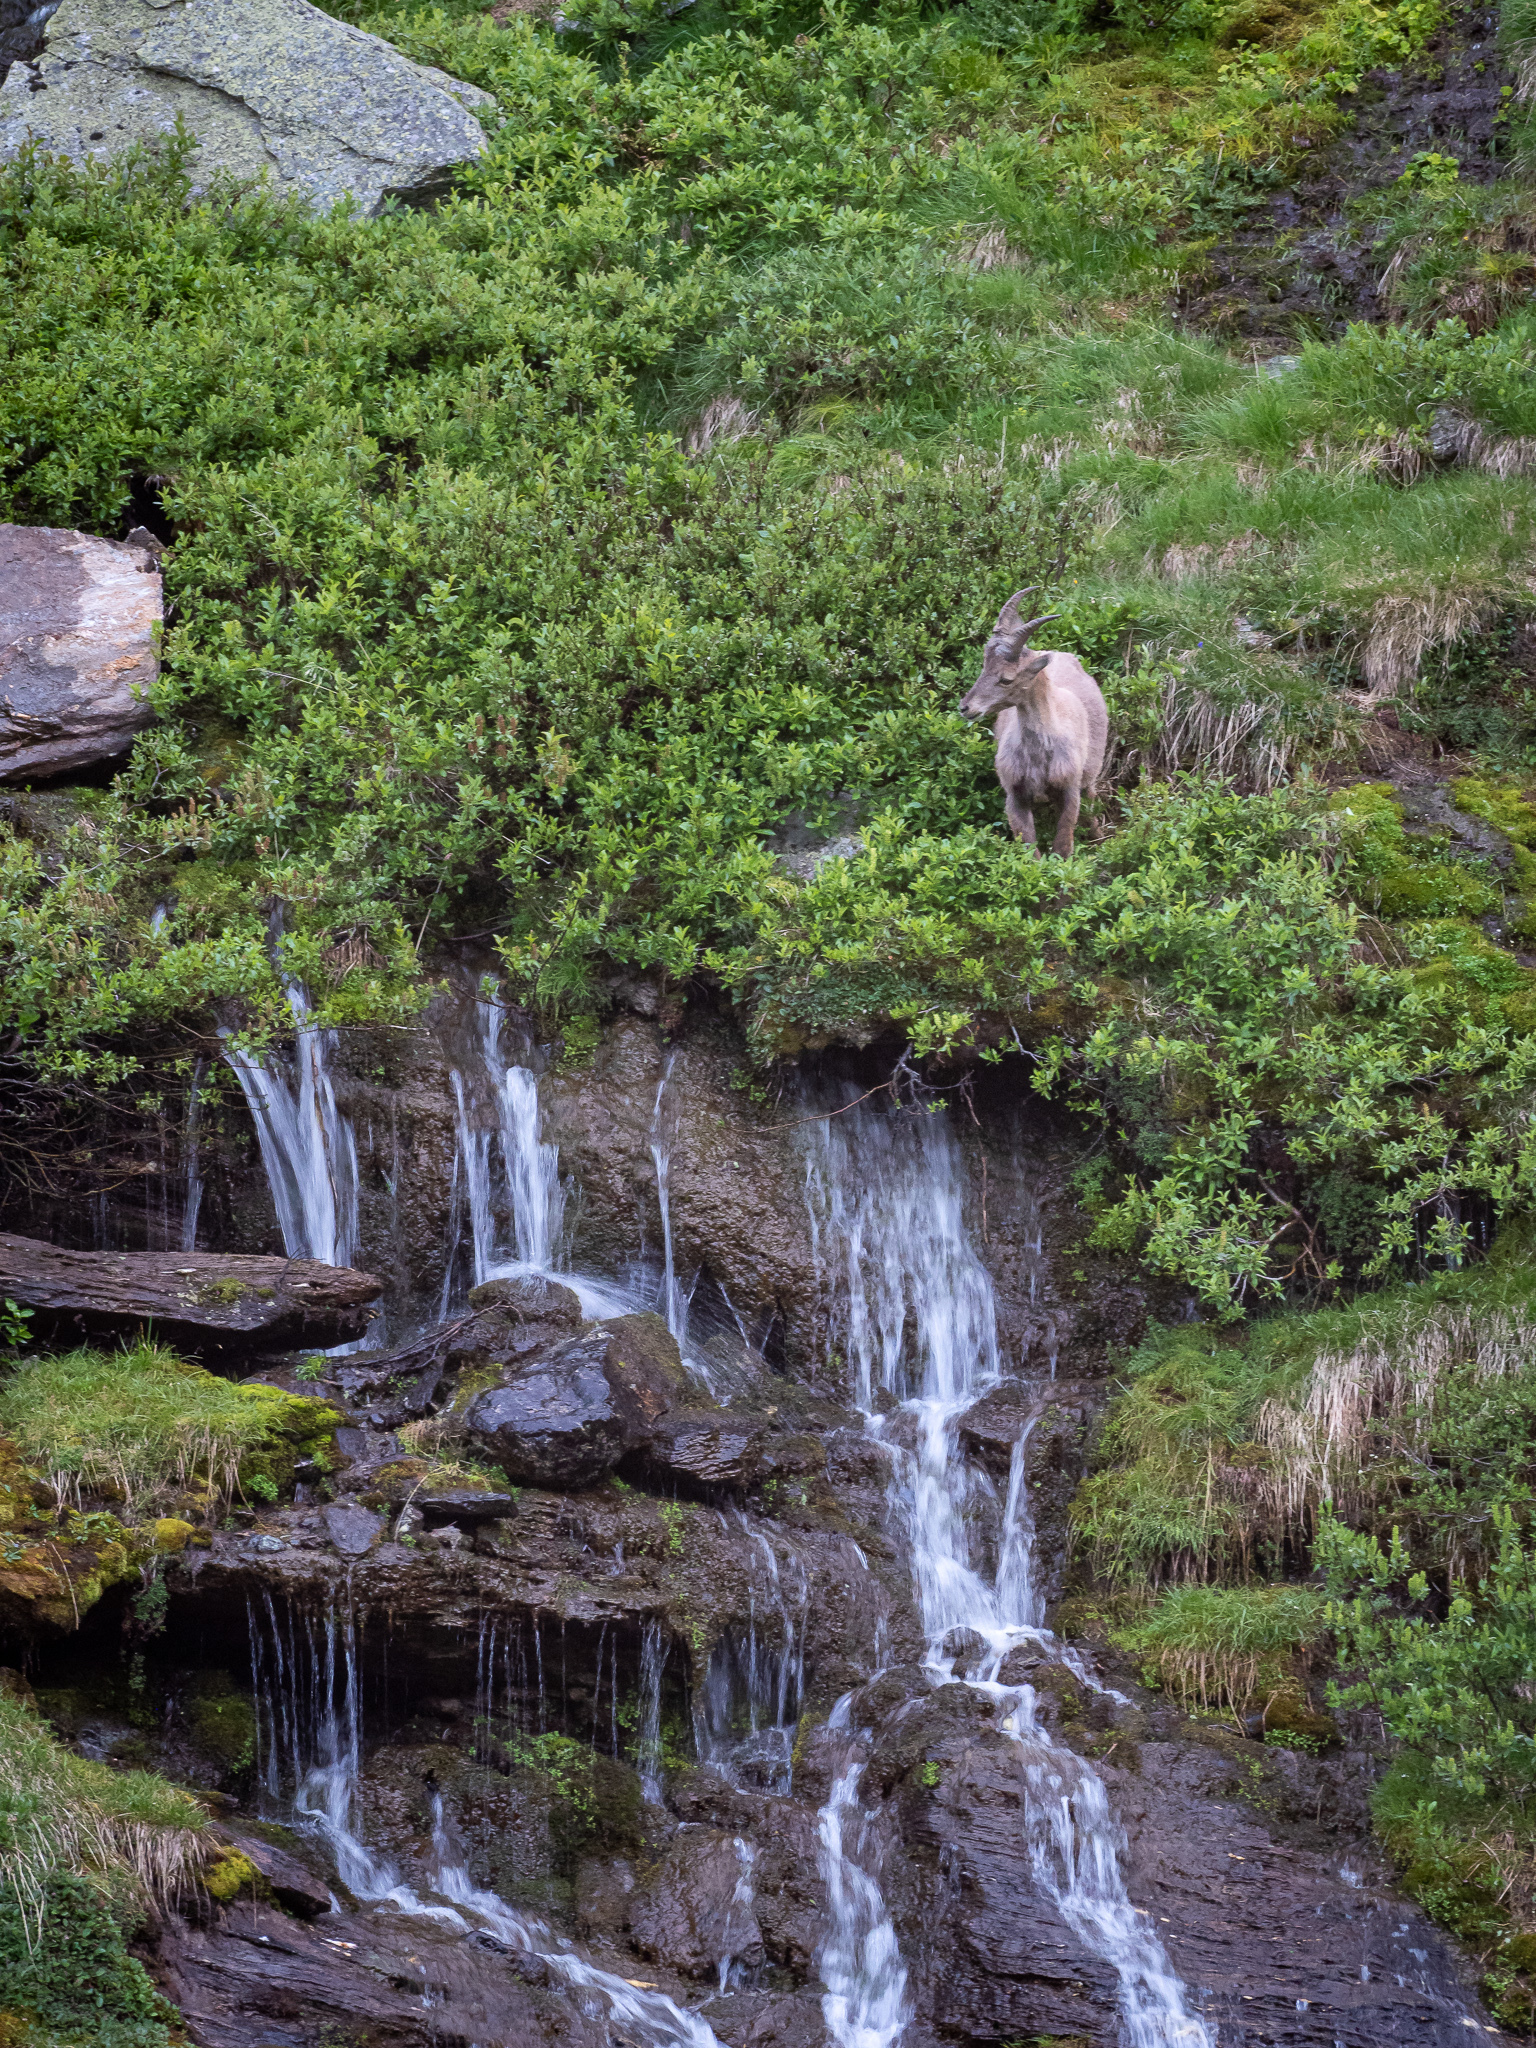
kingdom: Animalia
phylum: Chordata
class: Mammalia
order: Artiodactyla
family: Bovidae
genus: Capra
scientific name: Capra ibex
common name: Alpine ibex
